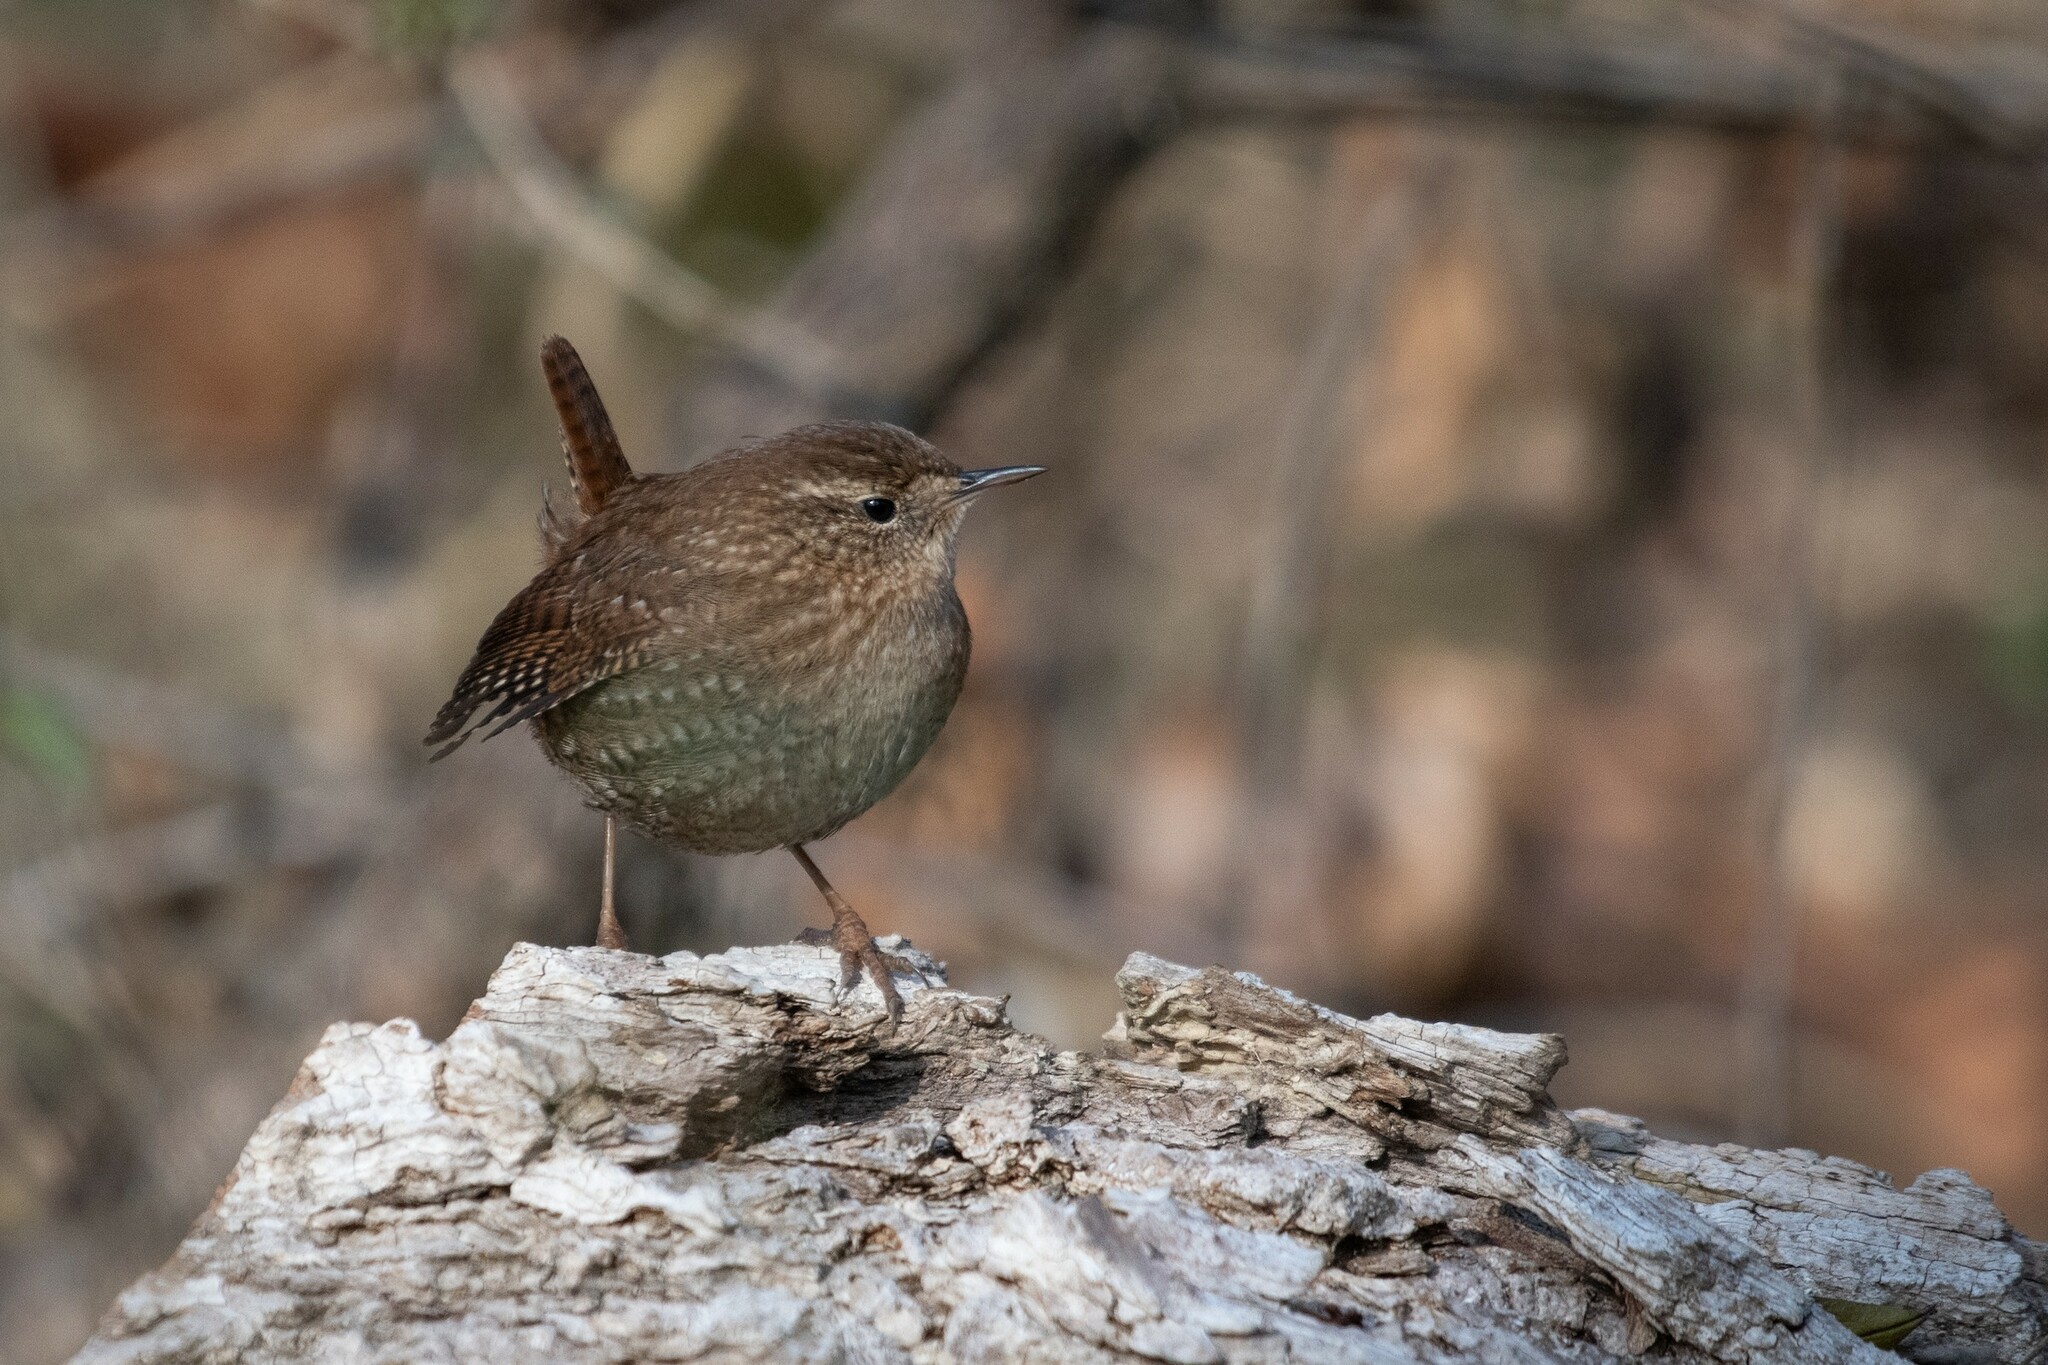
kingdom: Animalia
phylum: Chordata
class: Aves
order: Passeriformes
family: Troglodytidae
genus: Troglodytes
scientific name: Troglodytes hiemalis
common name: Winter wren
